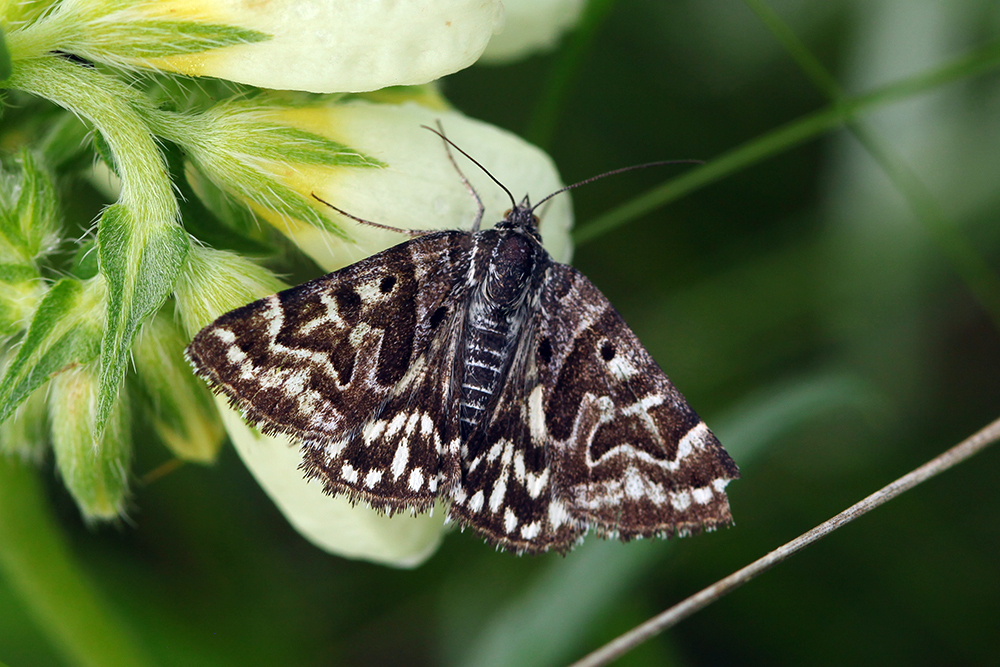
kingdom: Animalia
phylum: Arthropoda
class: Insecta
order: Lepidoptera
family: Erebidae
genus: Callistege
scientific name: Callistege mi
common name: Mother shipton
